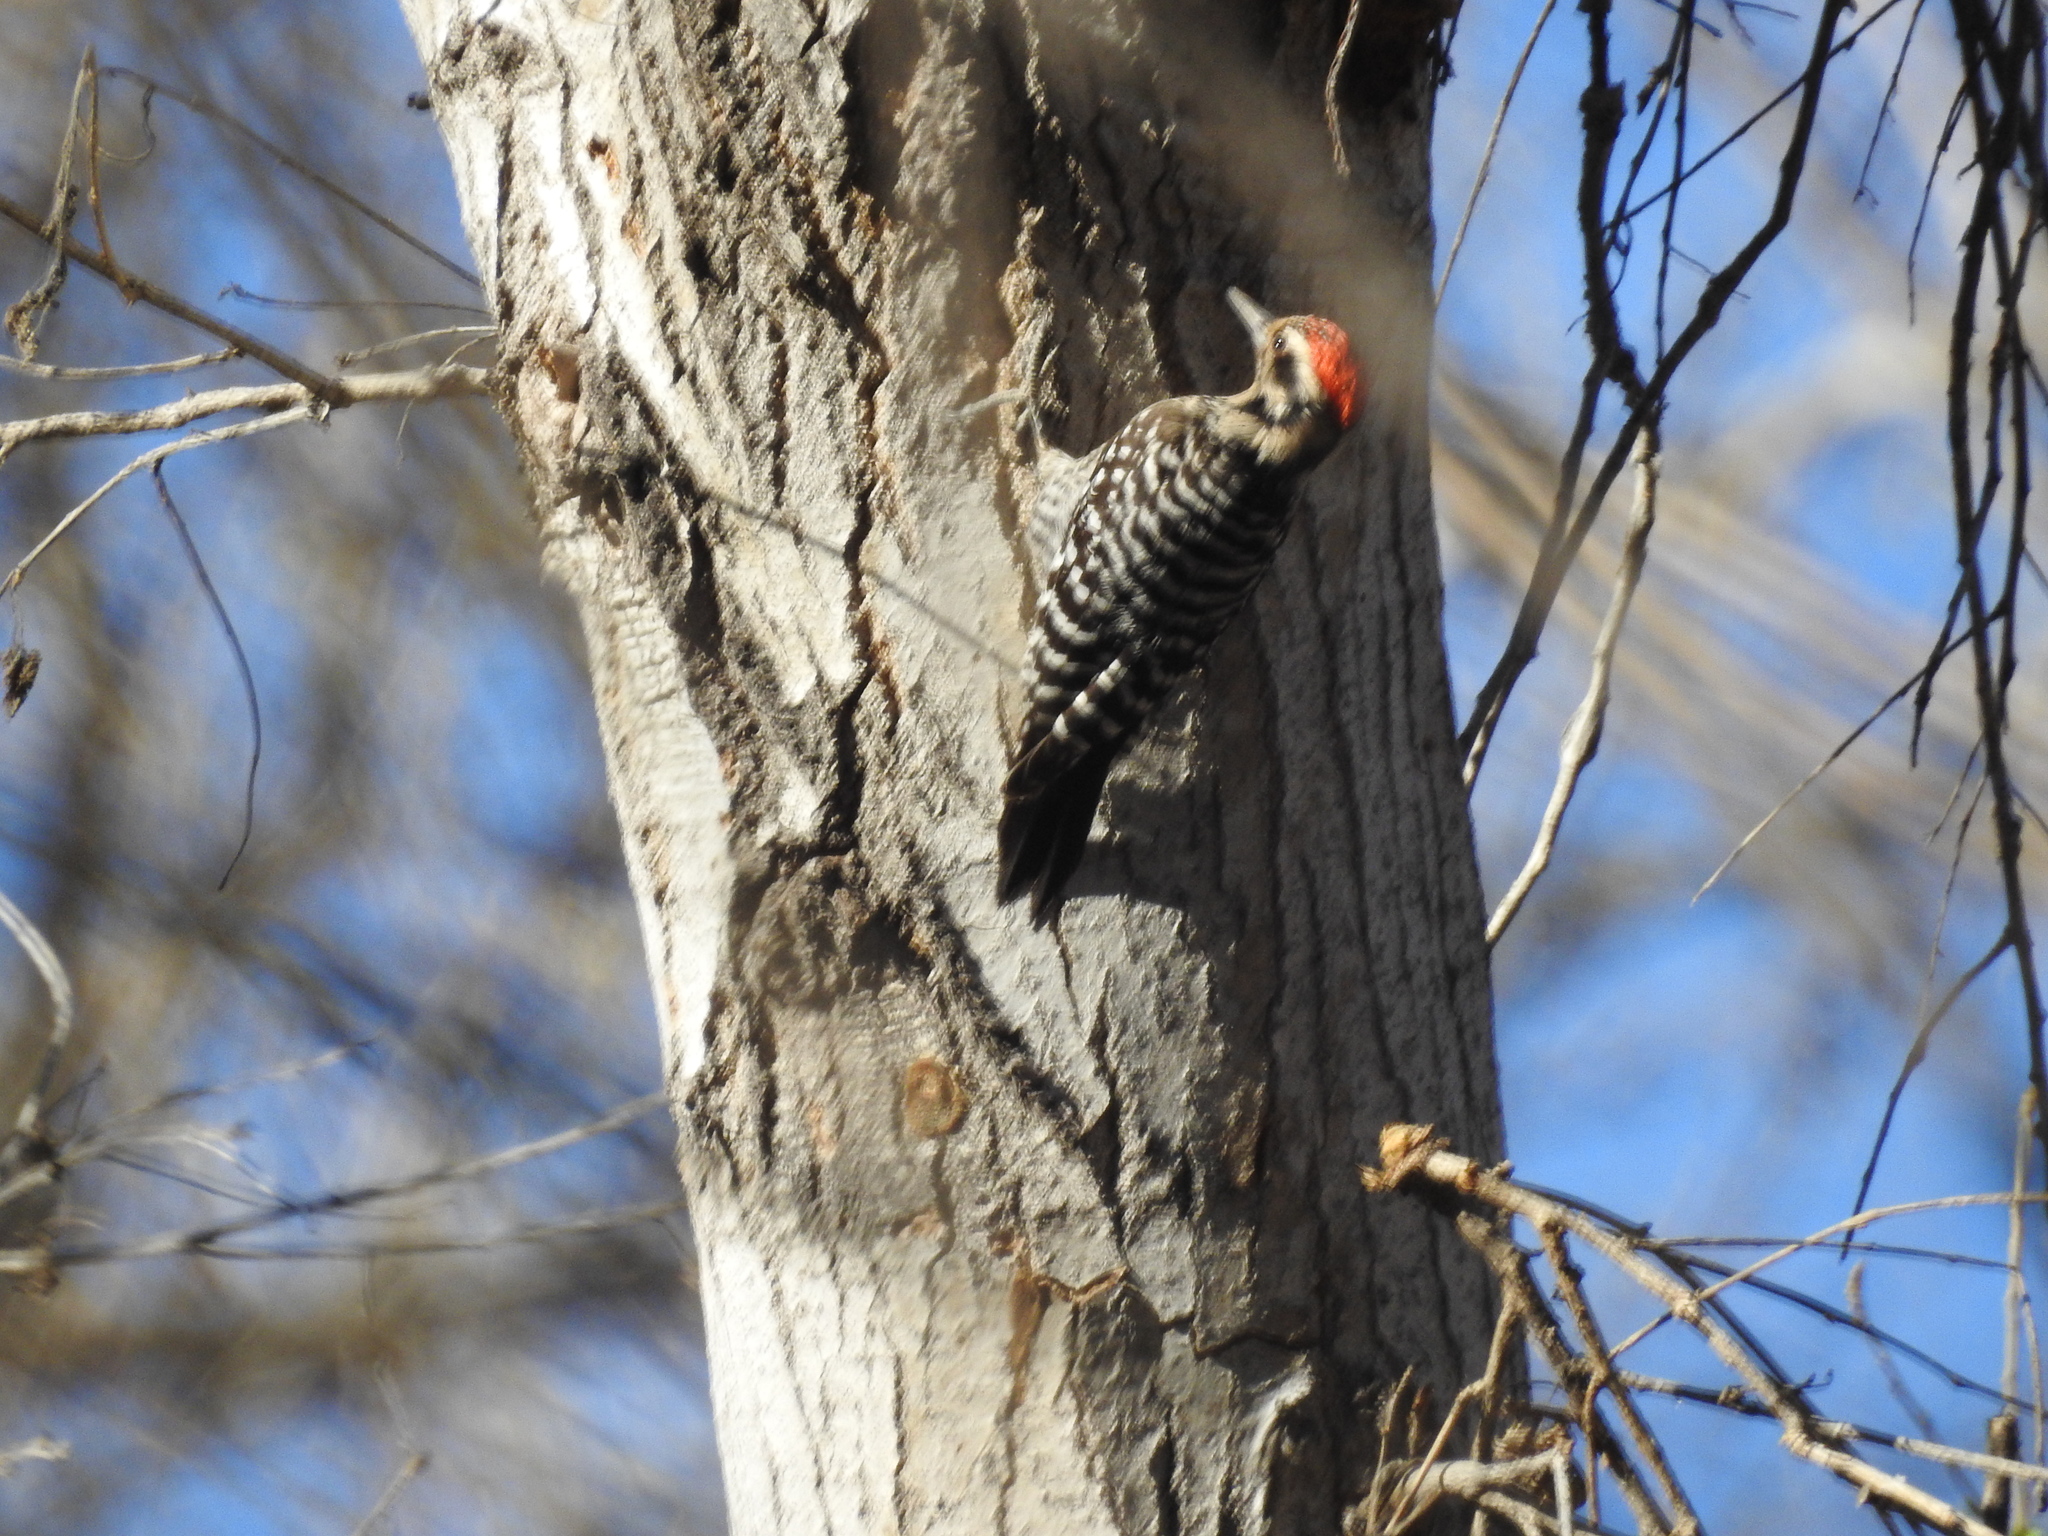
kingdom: Animalia
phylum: Chordata
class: Aves
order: Piciformes
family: Picidae
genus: Dryobates
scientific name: Dryobates scalaris
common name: Ladder-backed woodpecker
